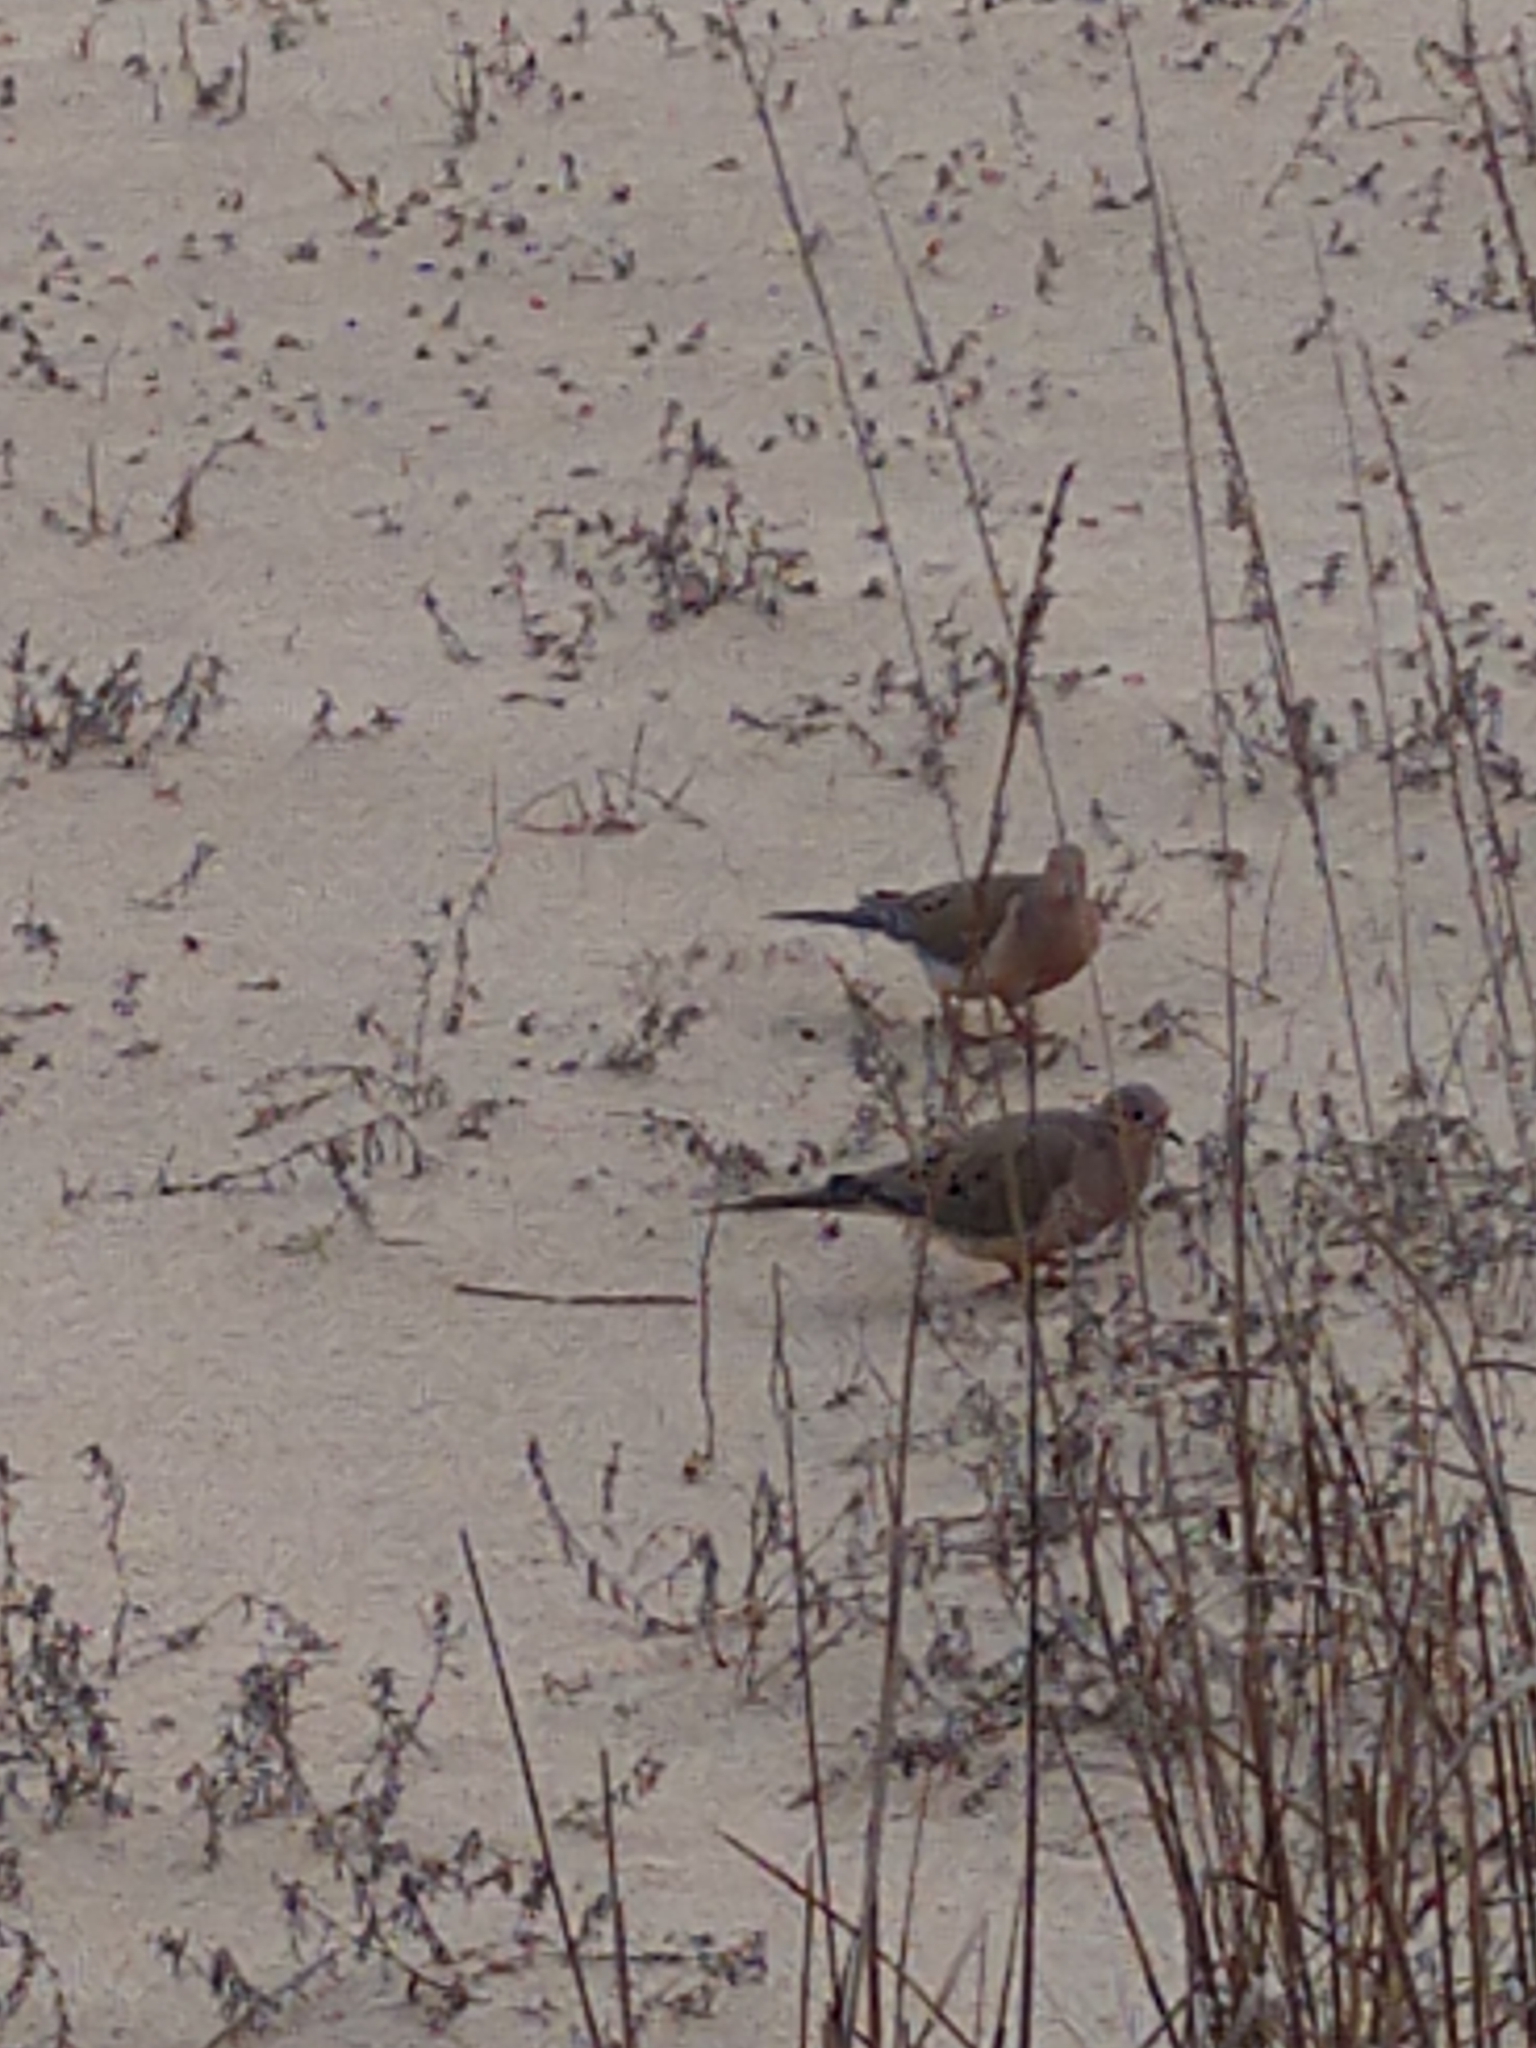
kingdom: Animalia
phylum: Chordata
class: Aves
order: Columbiformes
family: Columbidae
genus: Zenaida
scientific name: Zenaida macroura
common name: Mourning dove
